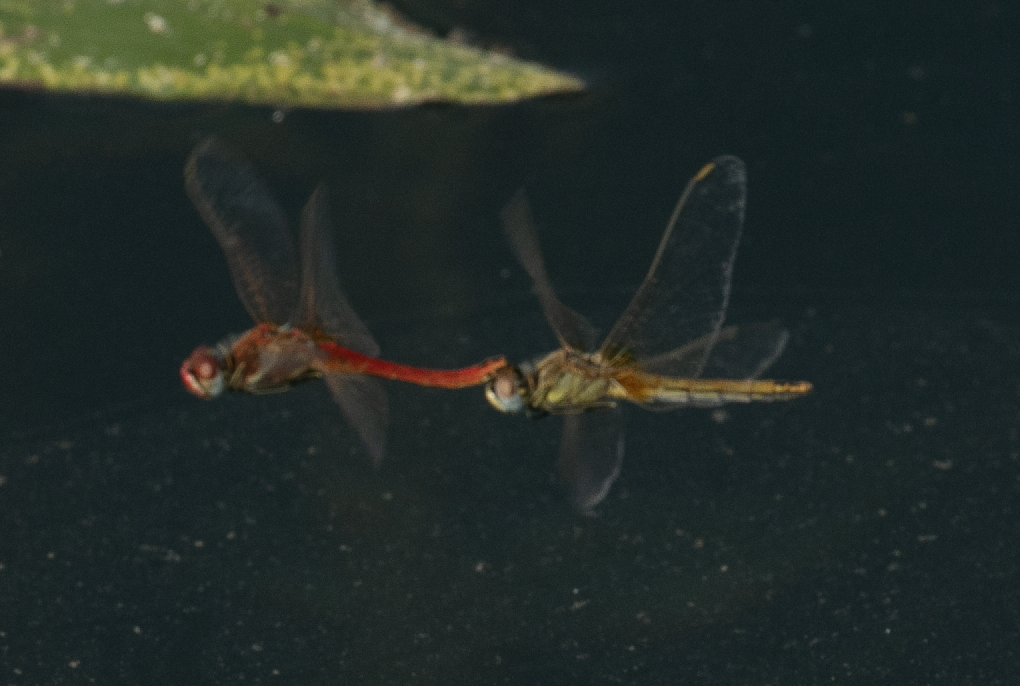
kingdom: Animalia
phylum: Arthropoda
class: Insecta
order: Odonata
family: Libellulidae
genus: Sympetrum
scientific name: Sympetrum fonscolombii
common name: Red-veined darter
